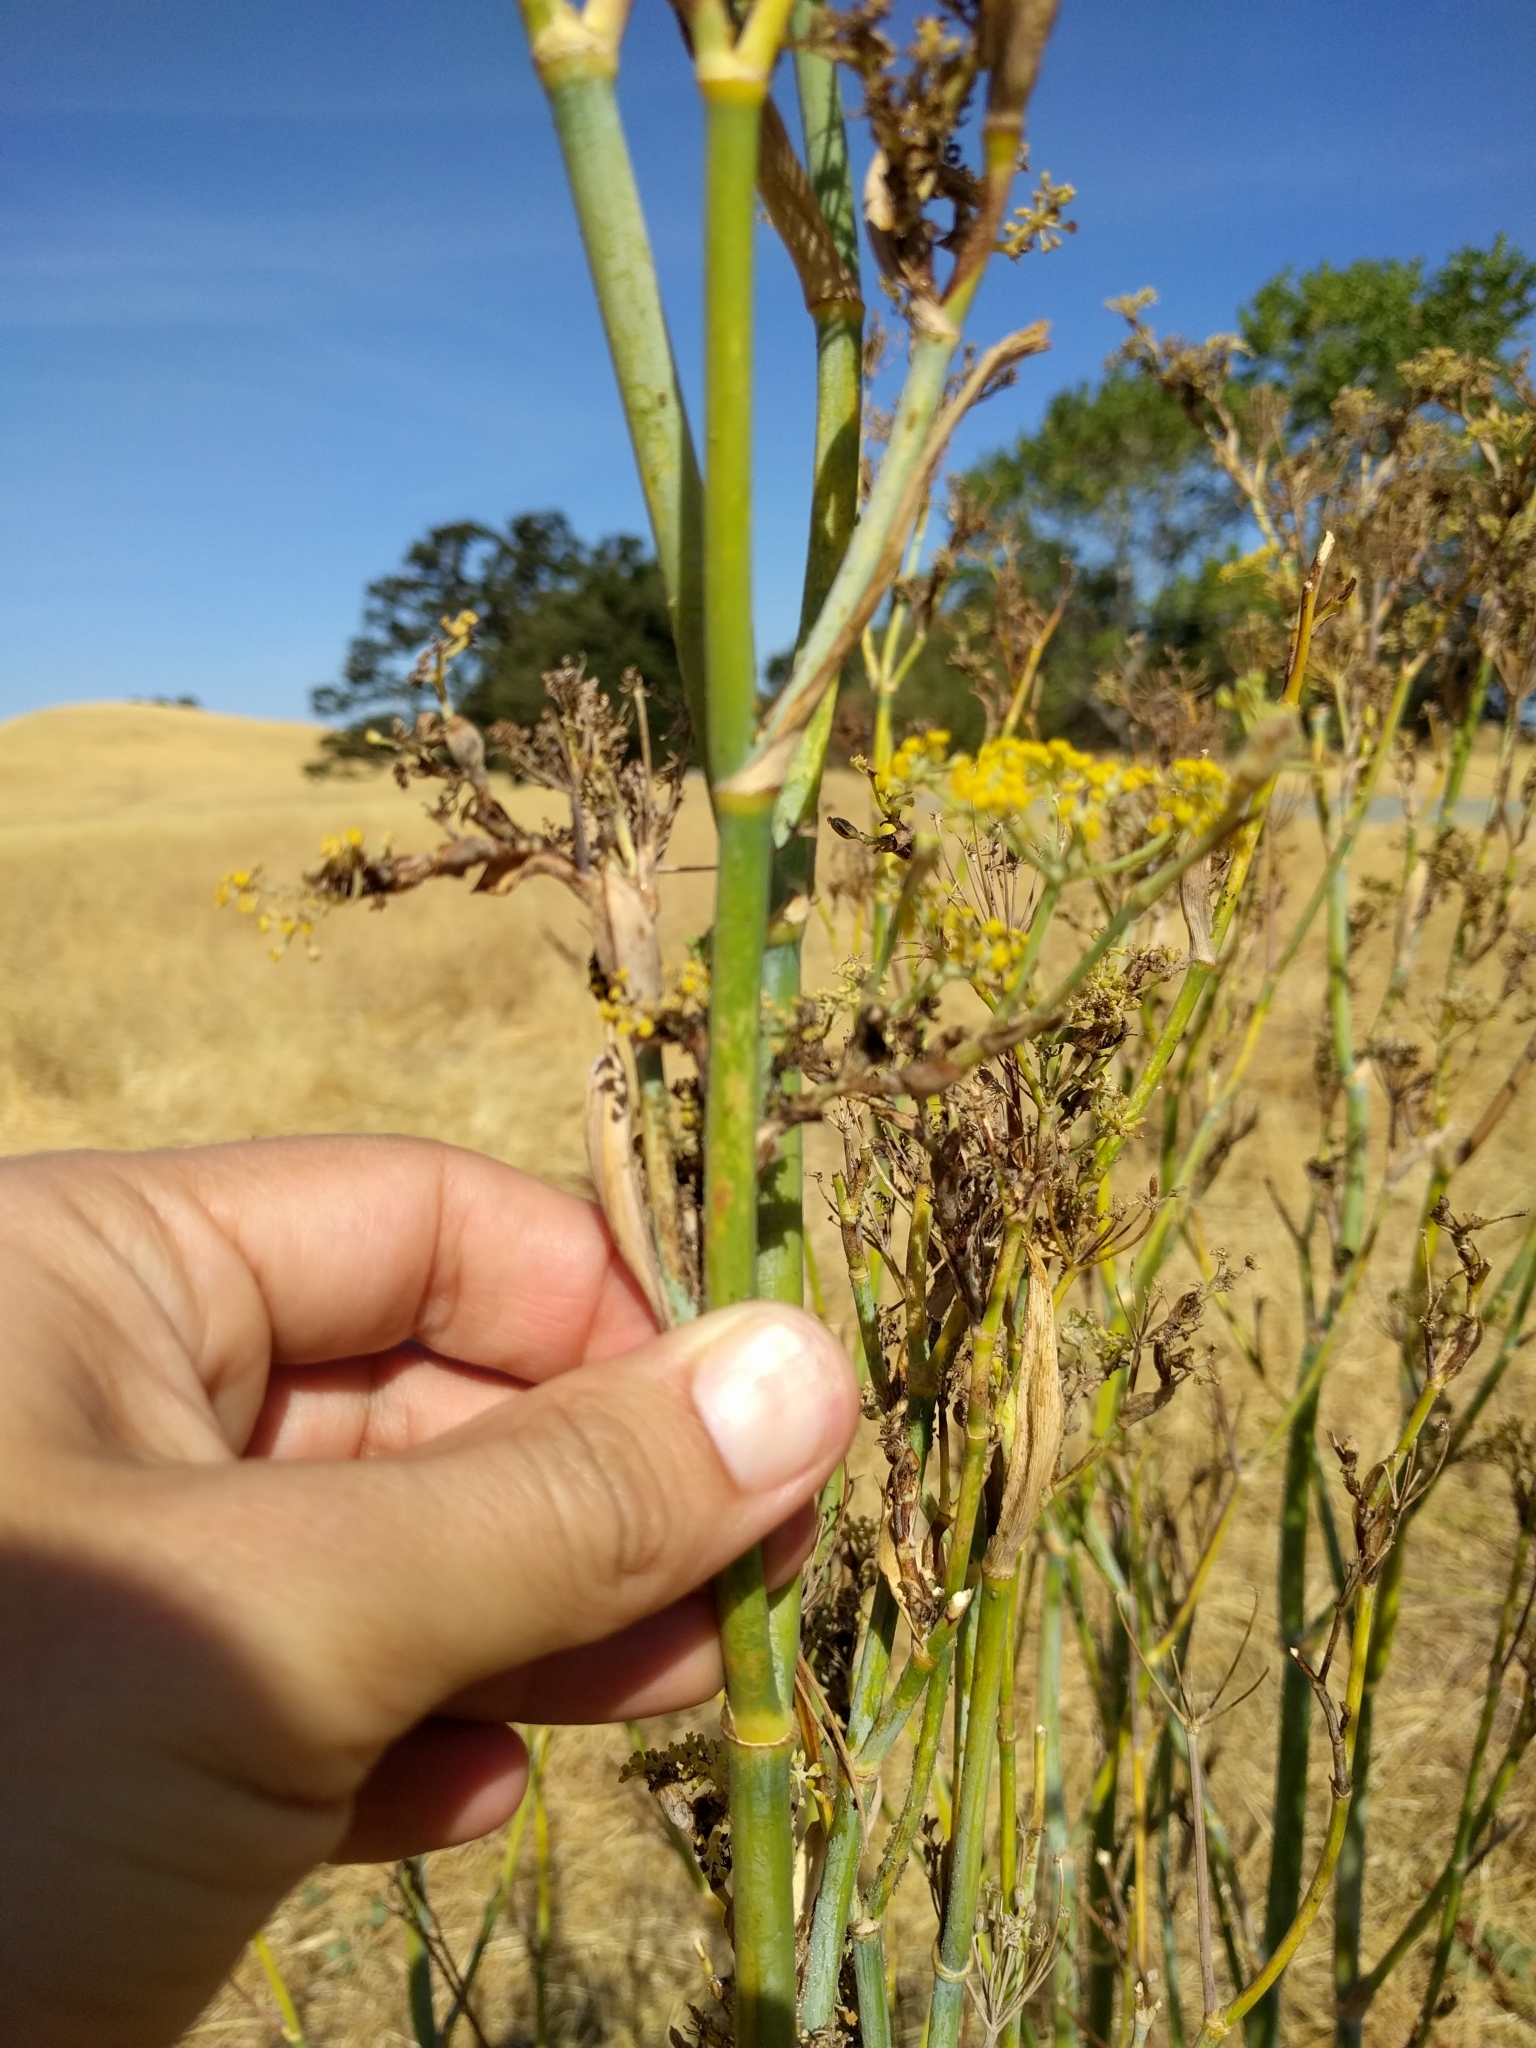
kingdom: Plantae
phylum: Tracheophyta
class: Magnoliopsida
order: Apiales
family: Apiaceae
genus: Foeniculum
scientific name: Foeniculum vulgare
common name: Fennel
